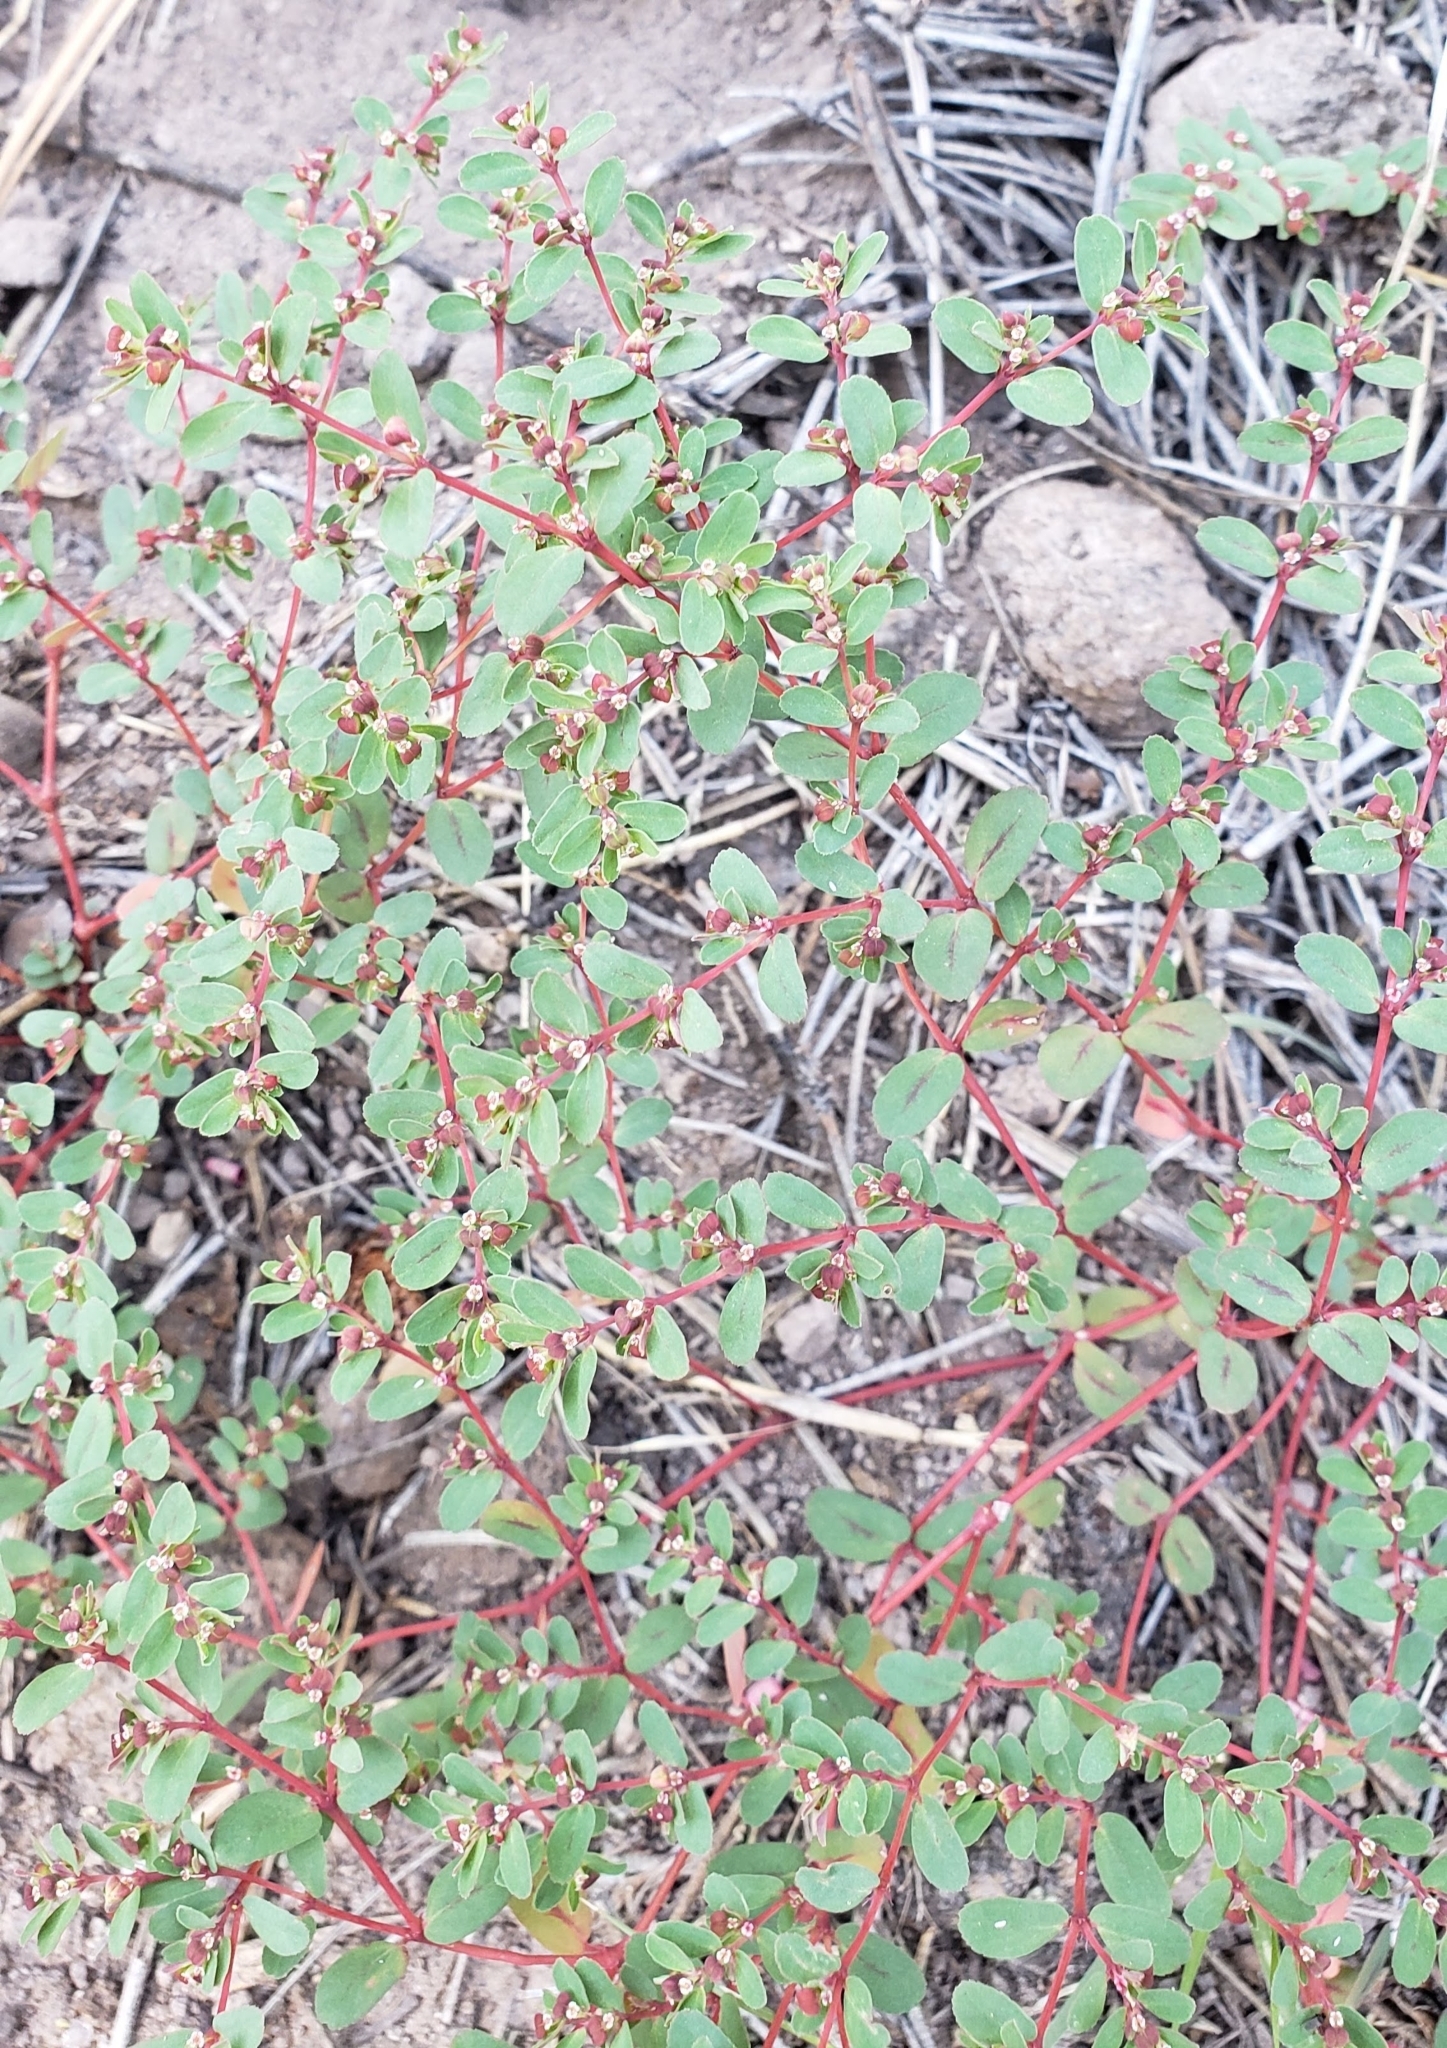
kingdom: Plantae
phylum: Tracheophyta
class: Magnoliopsida
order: Malpighiales
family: Euphorbiaceae
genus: Euphorbia
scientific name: Euphorbia serpillifolia
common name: Thyme-leaf spurge
